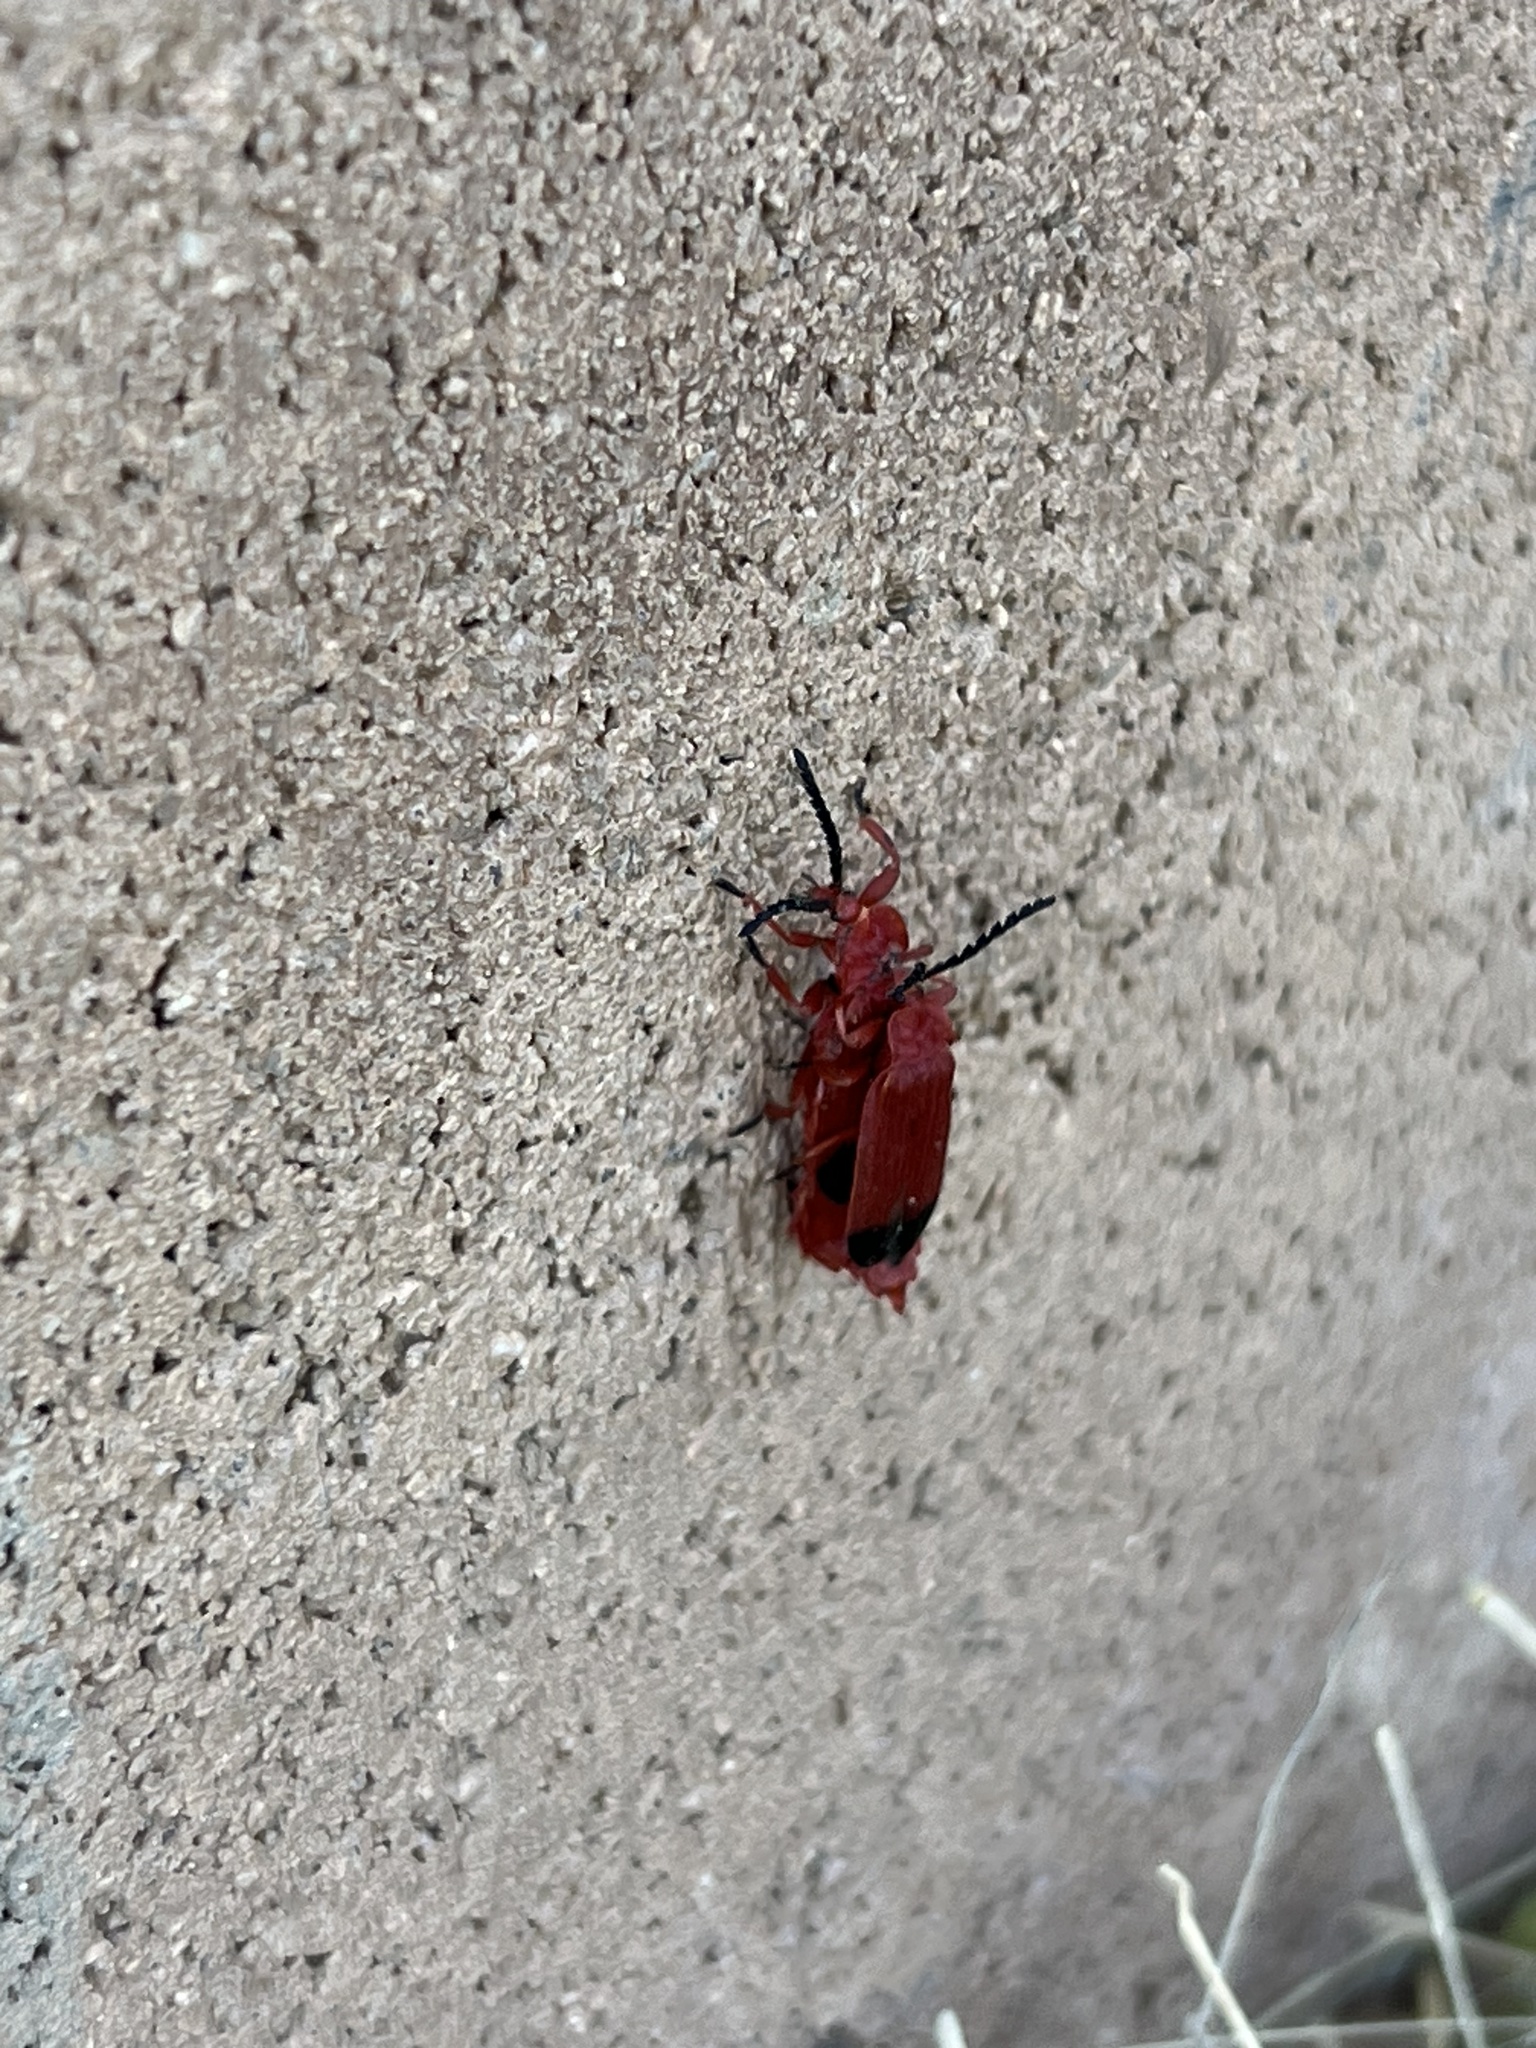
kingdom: Animalia
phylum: Arthropoda
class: Insecta
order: Coleoptera
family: Lycidae
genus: Lycus
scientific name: Lycus sanguineus
